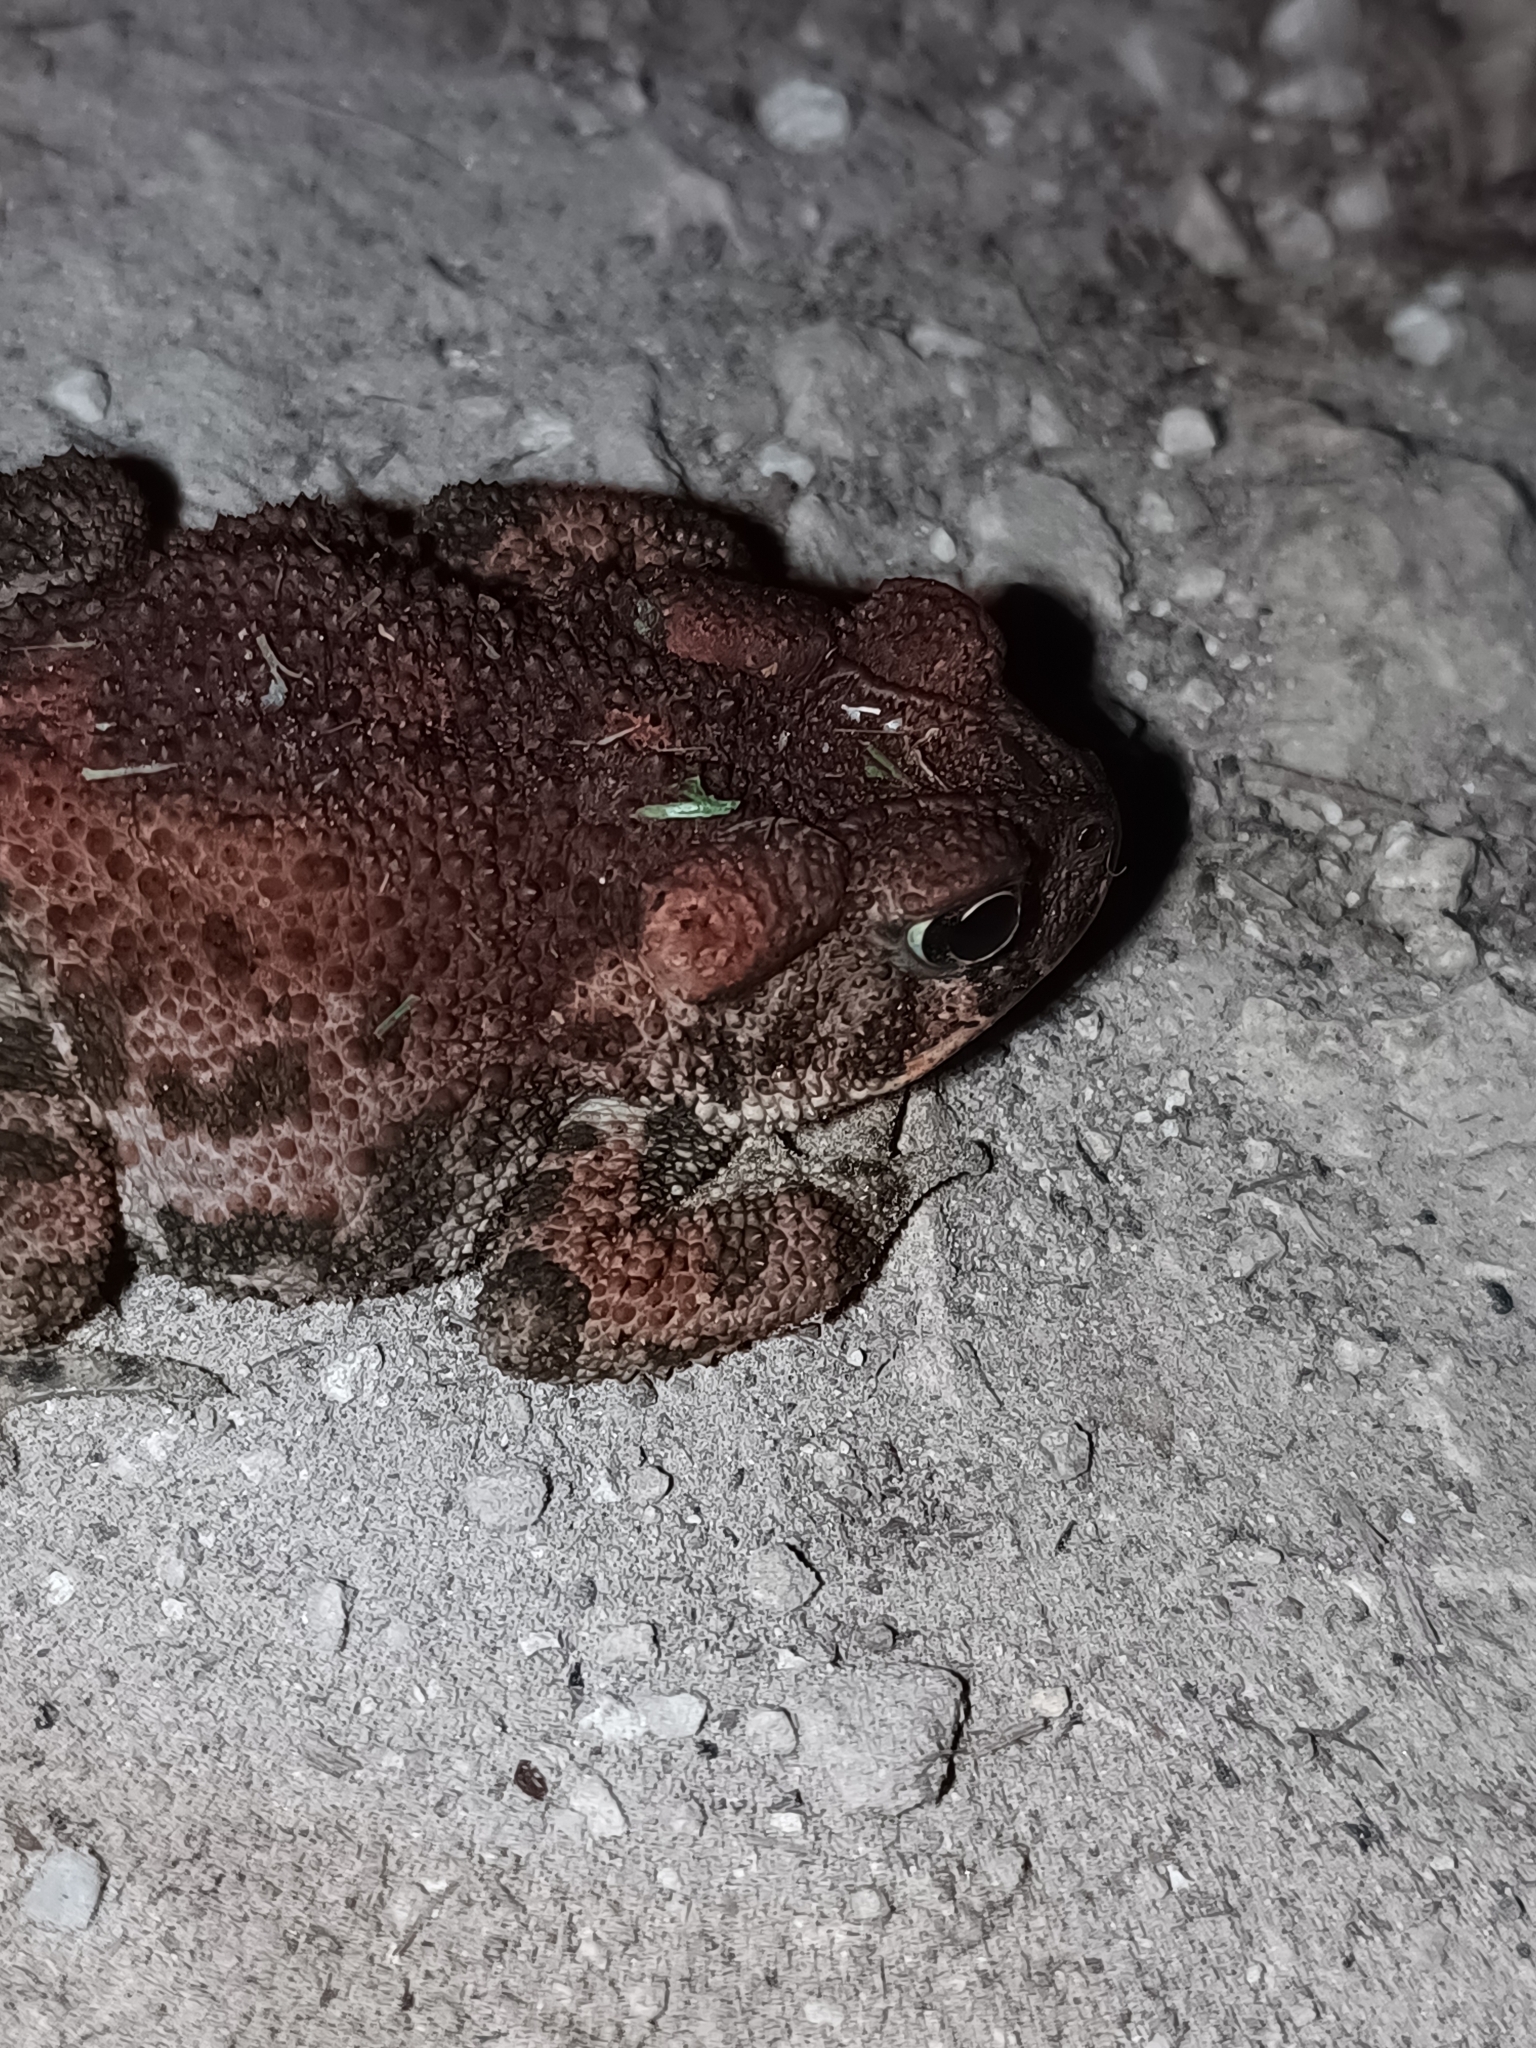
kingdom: Animalia
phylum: Chordata
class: Amphibia
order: Anura
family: Bufonidae
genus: Incilius
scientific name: Incilius occidentalis
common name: Pine toad
